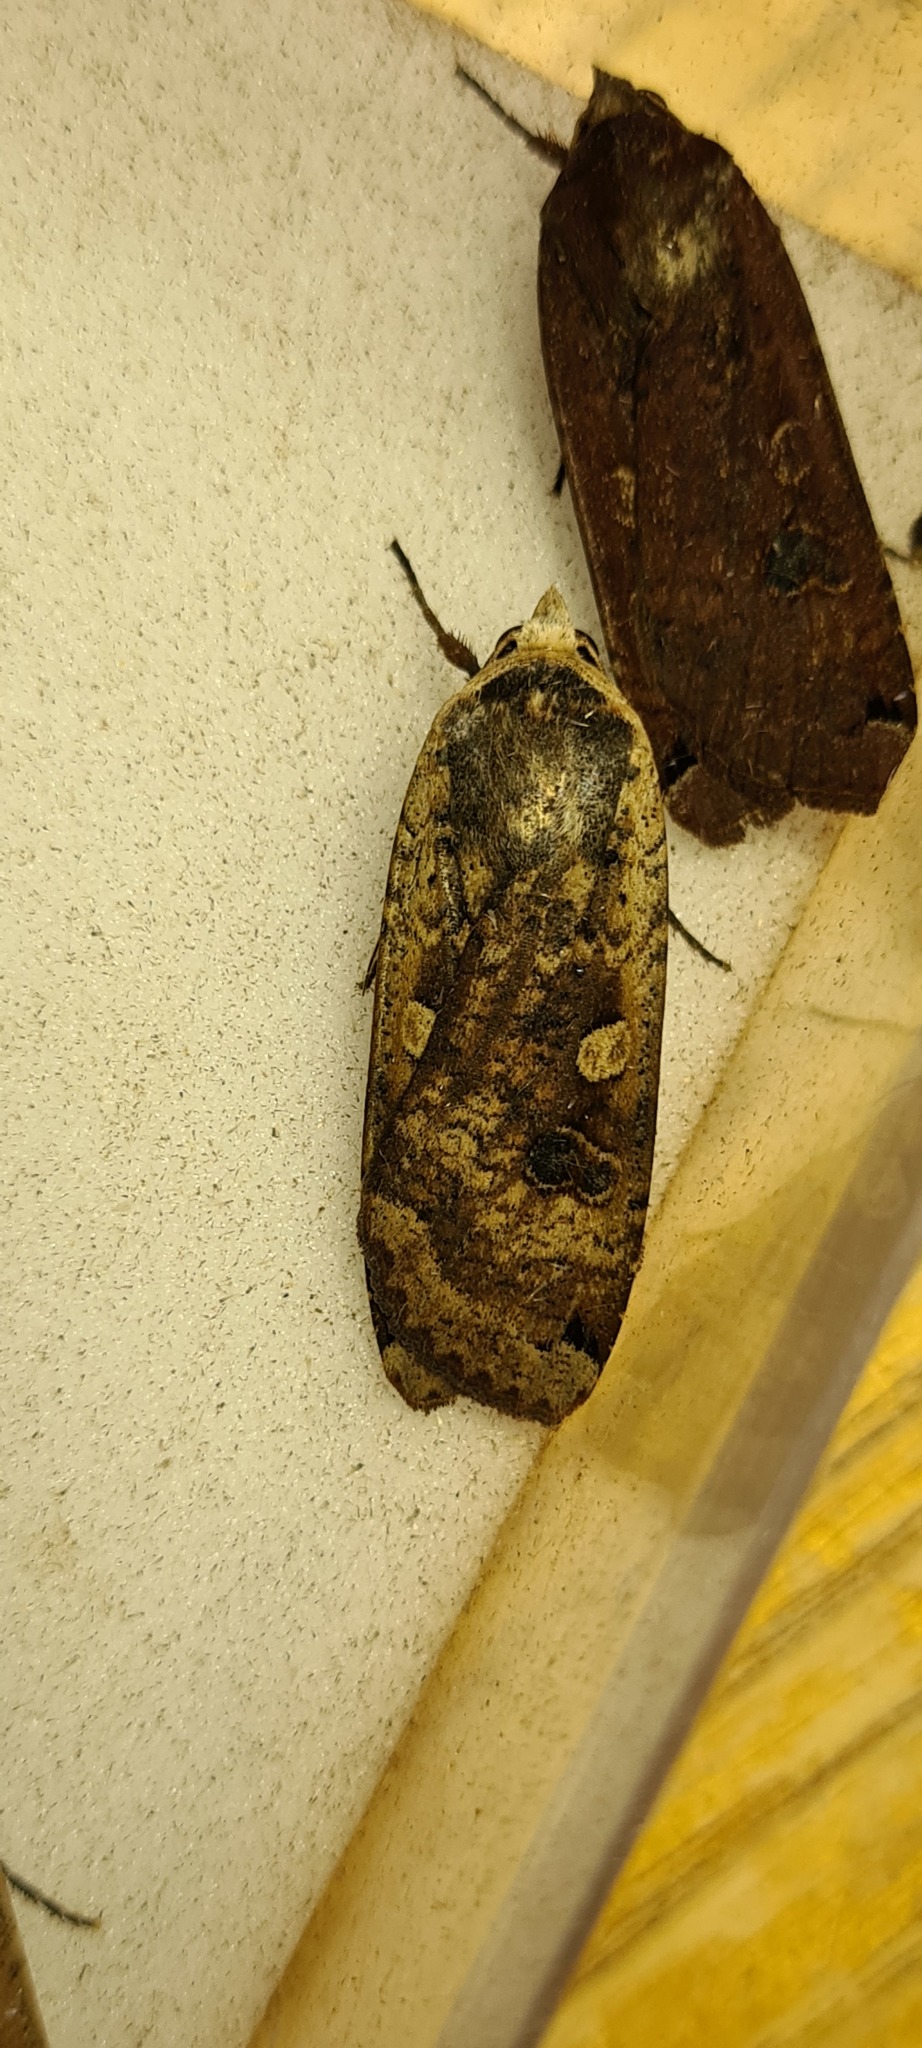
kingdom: Animalia
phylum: Arthropoda
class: Insecta
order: Lepidoptera
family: Noctuidae
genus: Noctua
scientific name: Noctua pronuba
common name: Large yellow underwing
